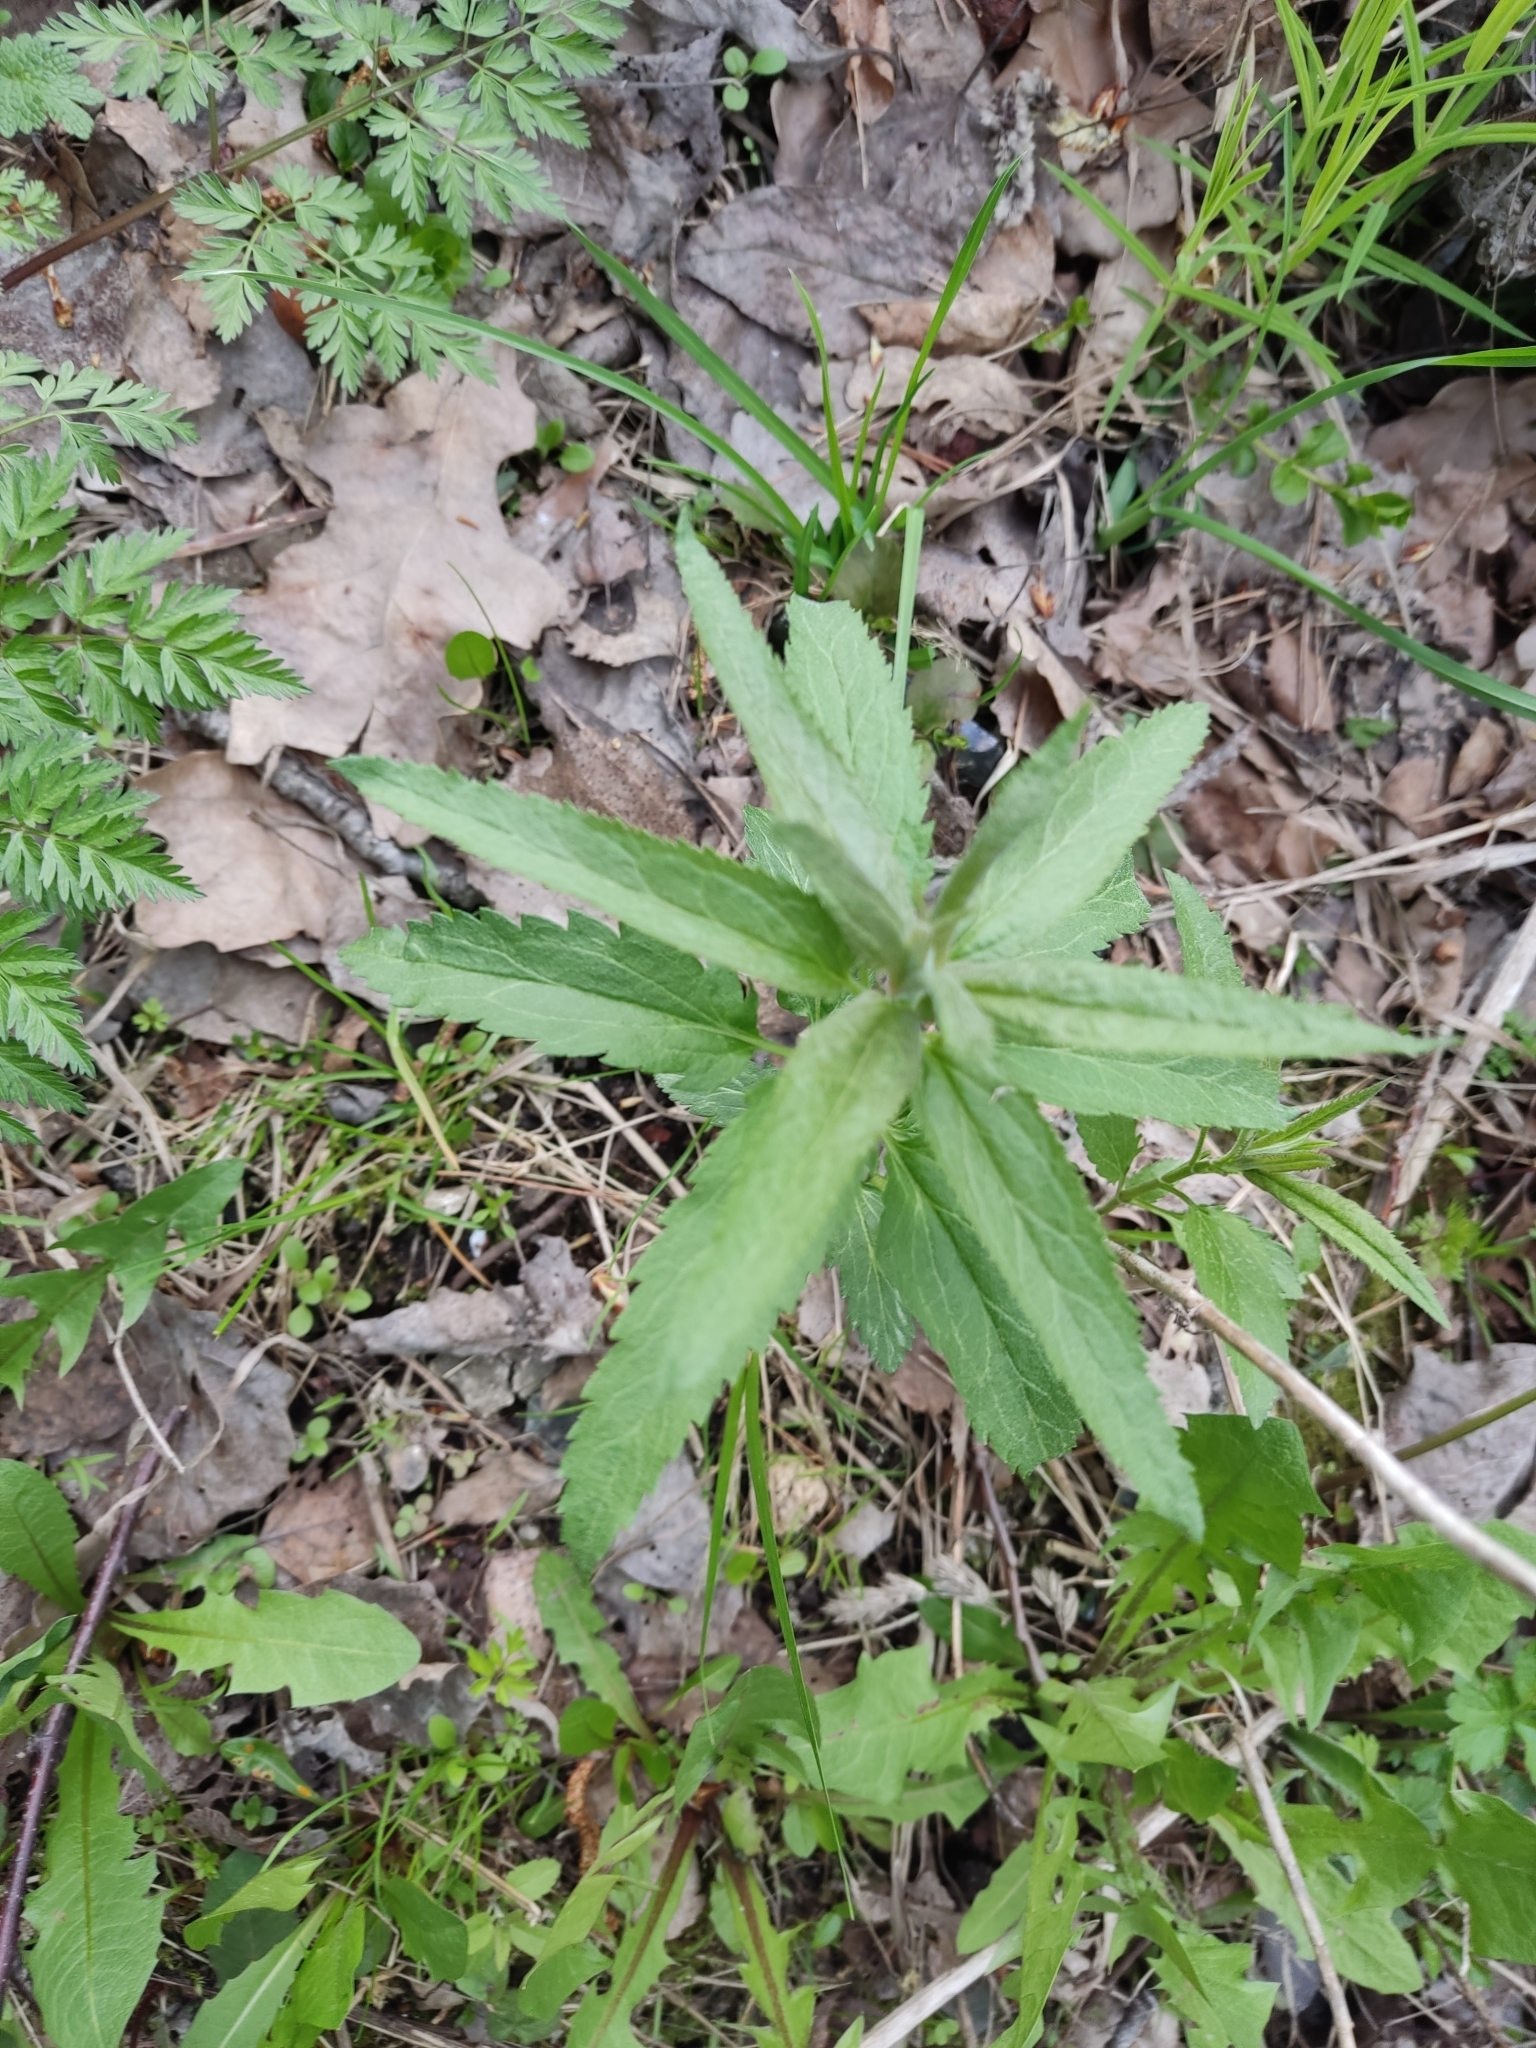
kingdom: Plantae
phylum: Tracheophyta
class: Magnoliopsida
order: Lamiales
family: Plantaginaceae
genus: Veronica
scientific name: Veronica longifolia
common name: Garden speedwell
